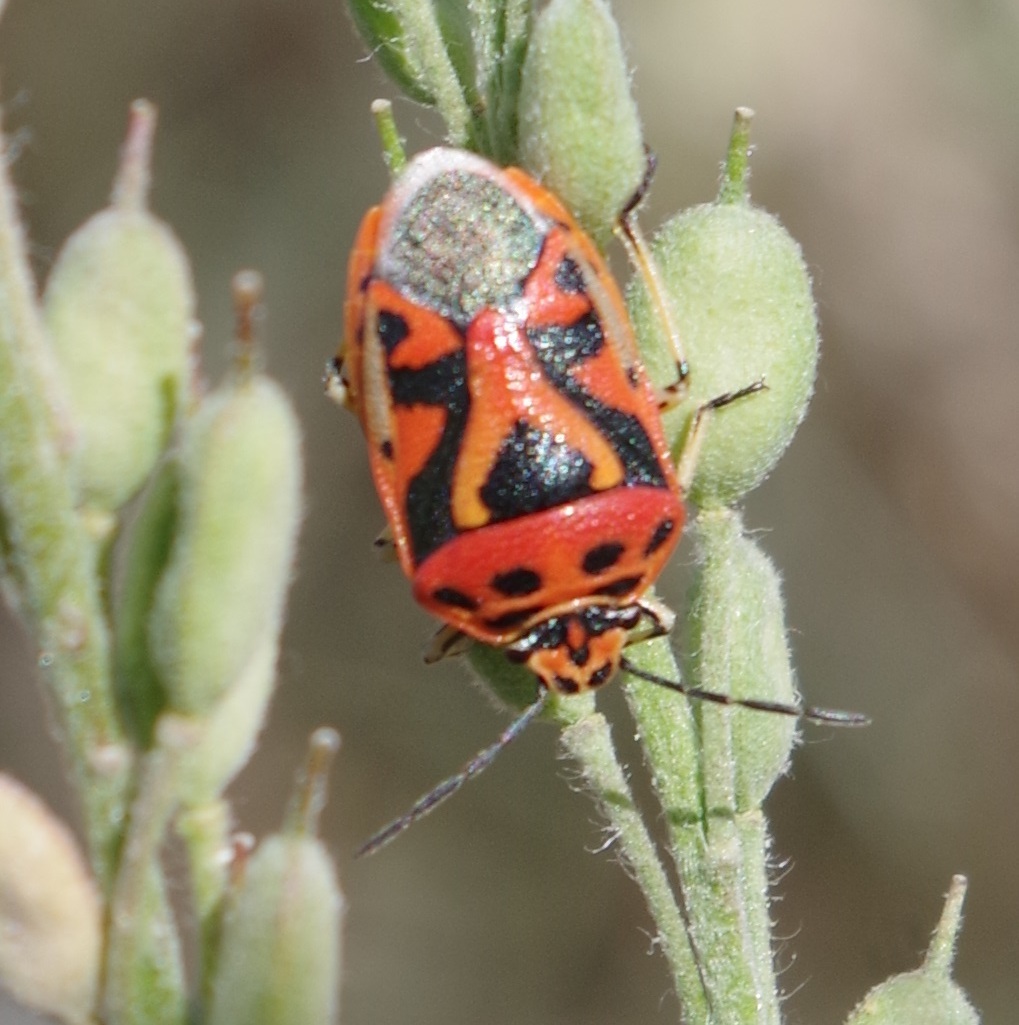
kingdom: Animalia
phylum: Arthropoda
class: Insecta
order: Hemiptera
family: Pentatomidae
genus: Eurydema
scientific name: Eurydema ornata
